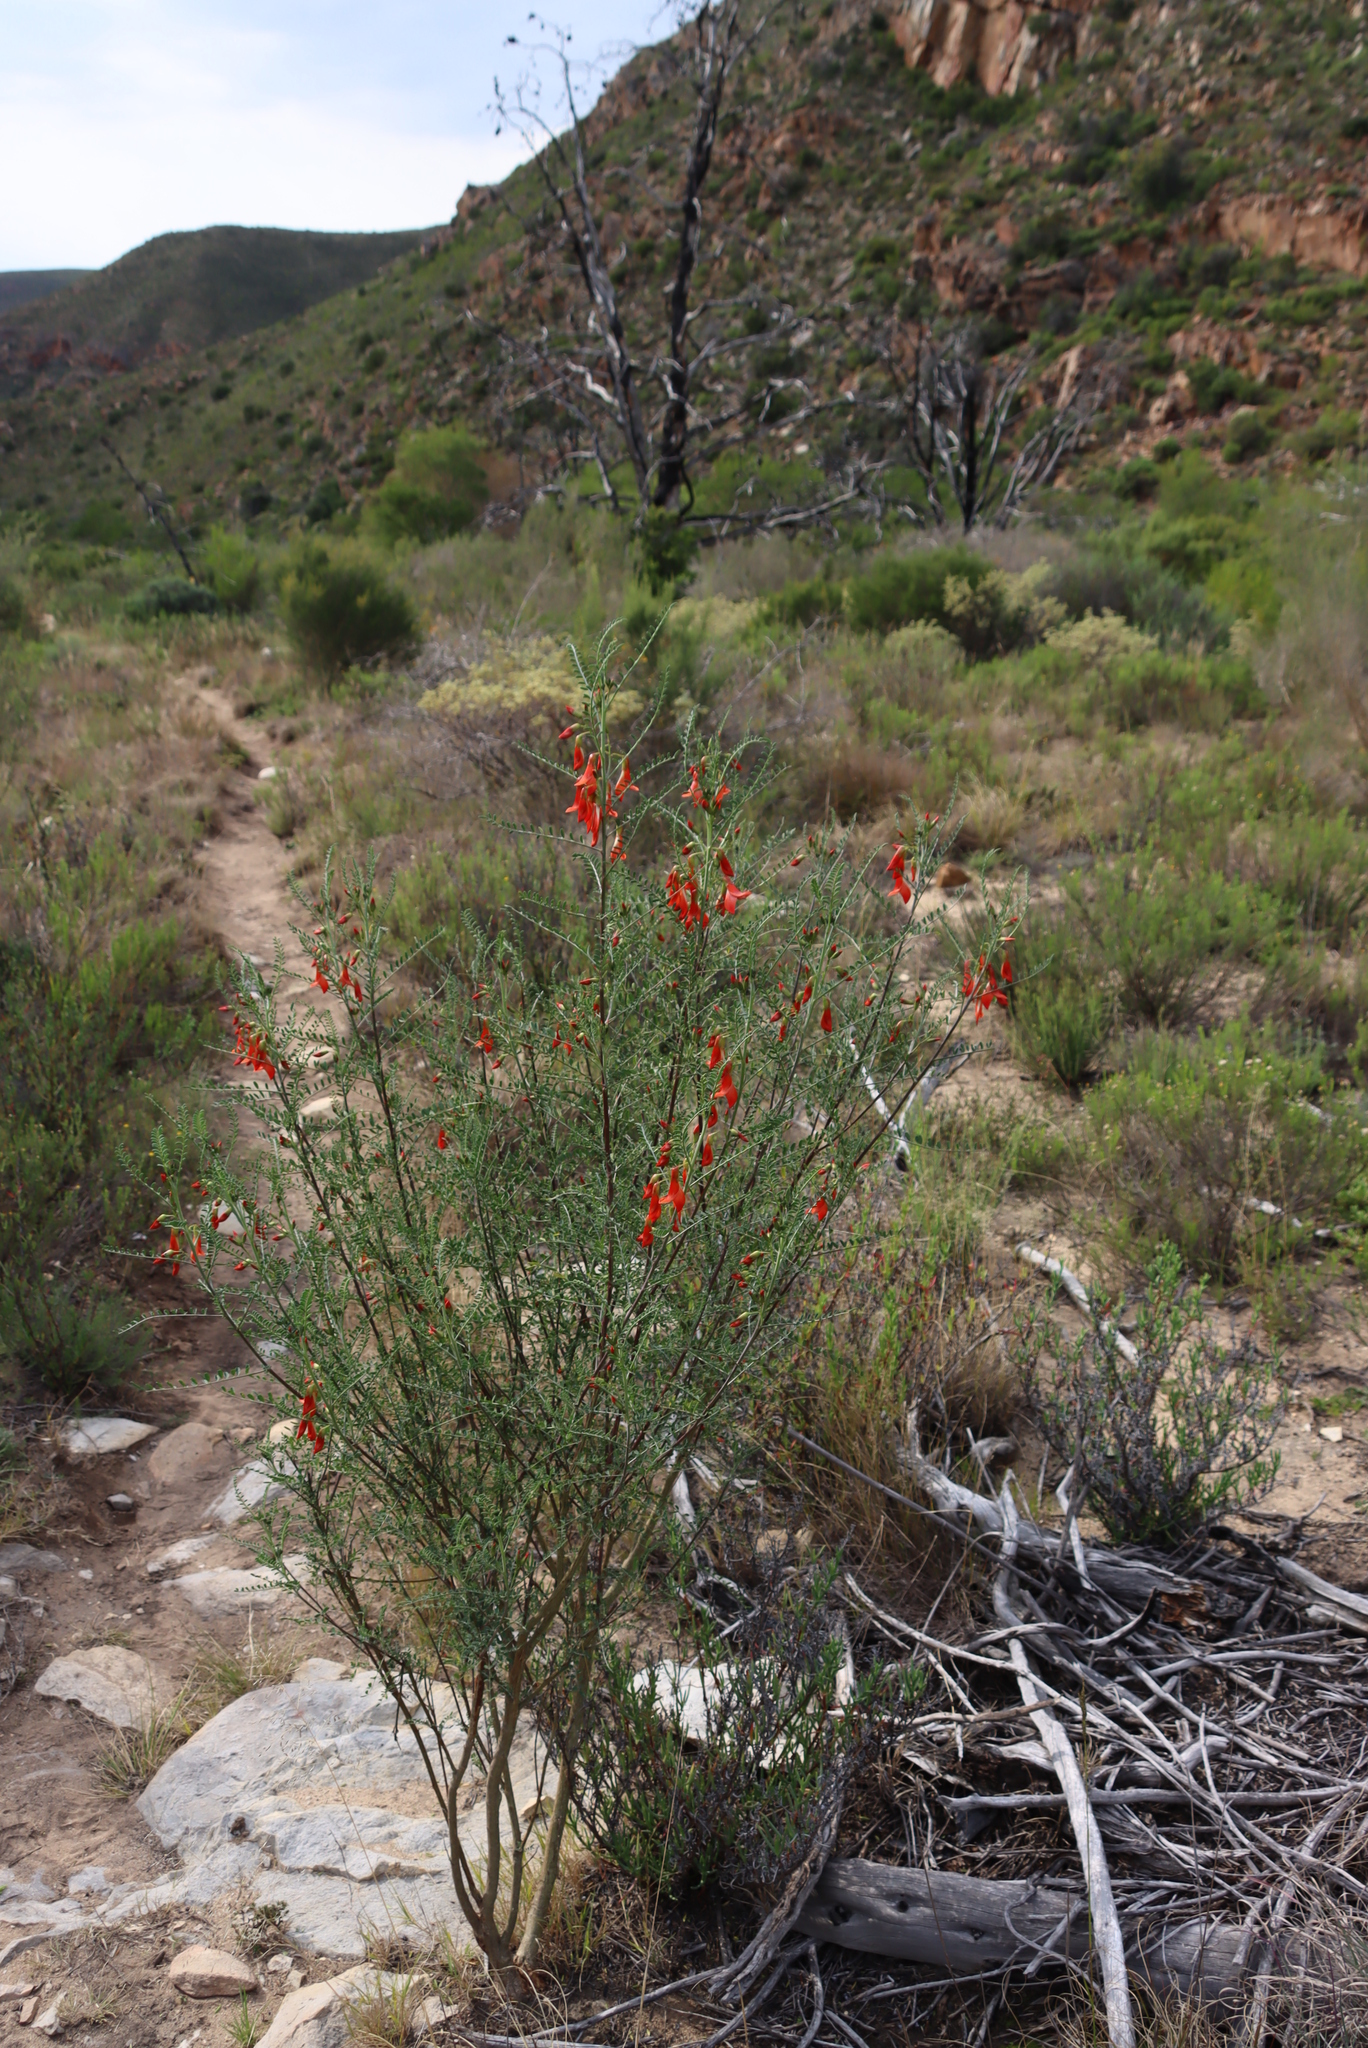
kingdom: Plantae
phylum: Tracheophyta
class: Magnoliopsida
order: Fabales
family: Fabaceae
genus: Lessertia
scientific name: Lessertia frutescens
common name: Balloon-pea
